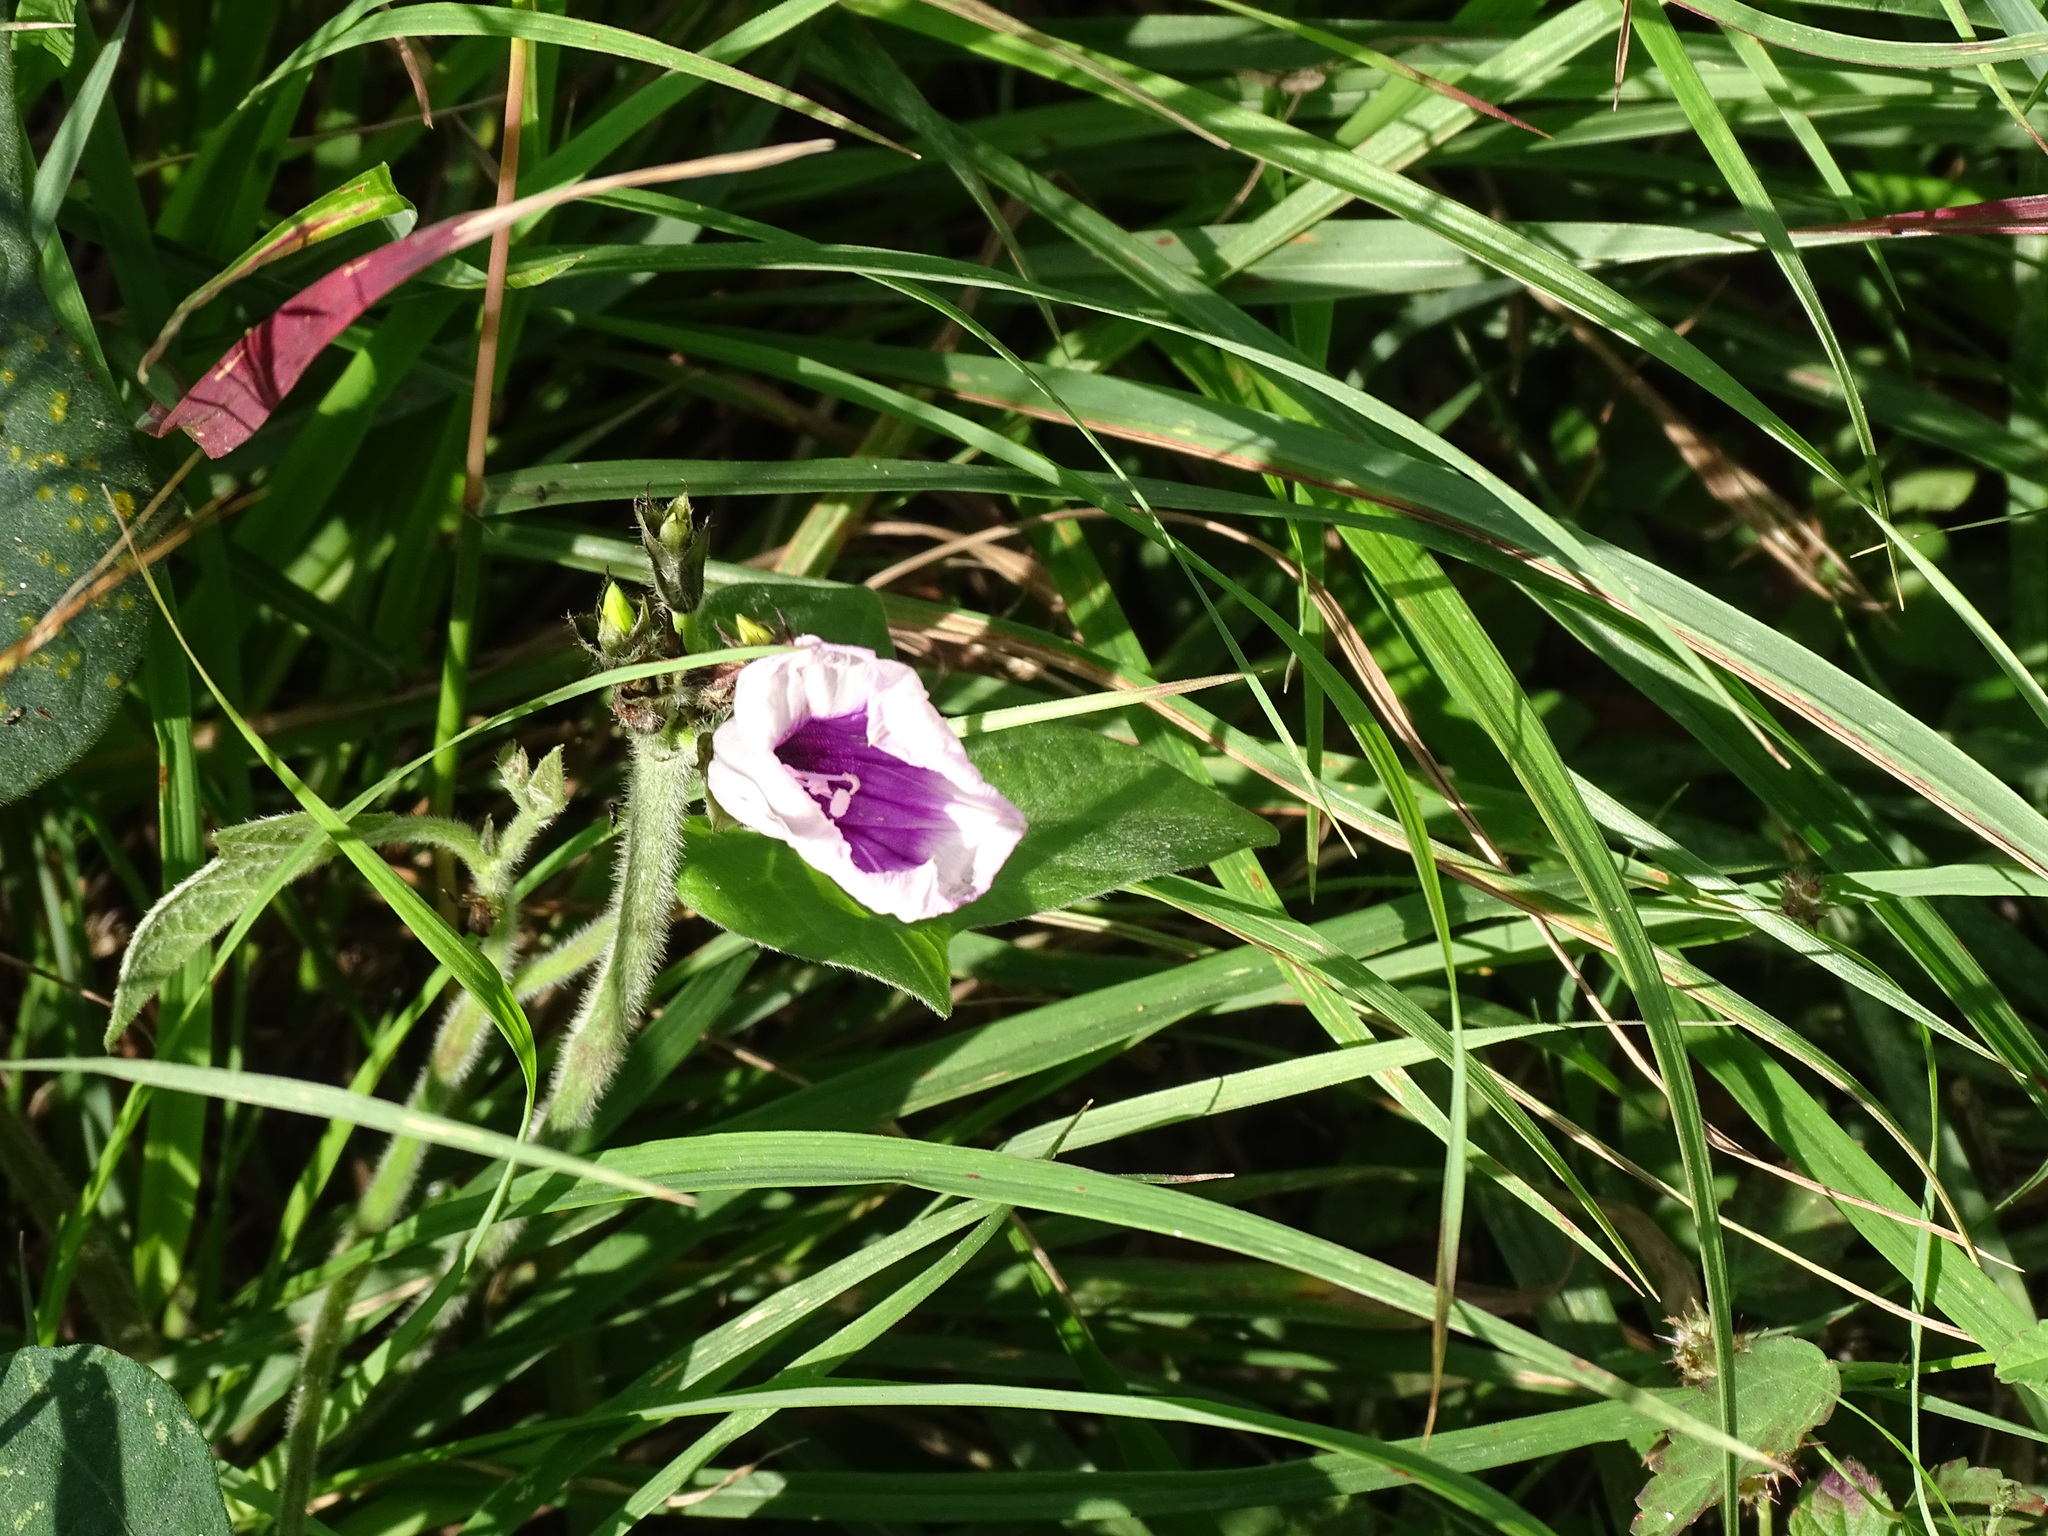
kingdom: Plantae
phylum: Tracheophyta
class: Magnoliopsida
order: Solanales
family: Convolvulaceae
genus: Ipomoea
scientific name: Ipomoea batatas
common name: Sweet-potato
